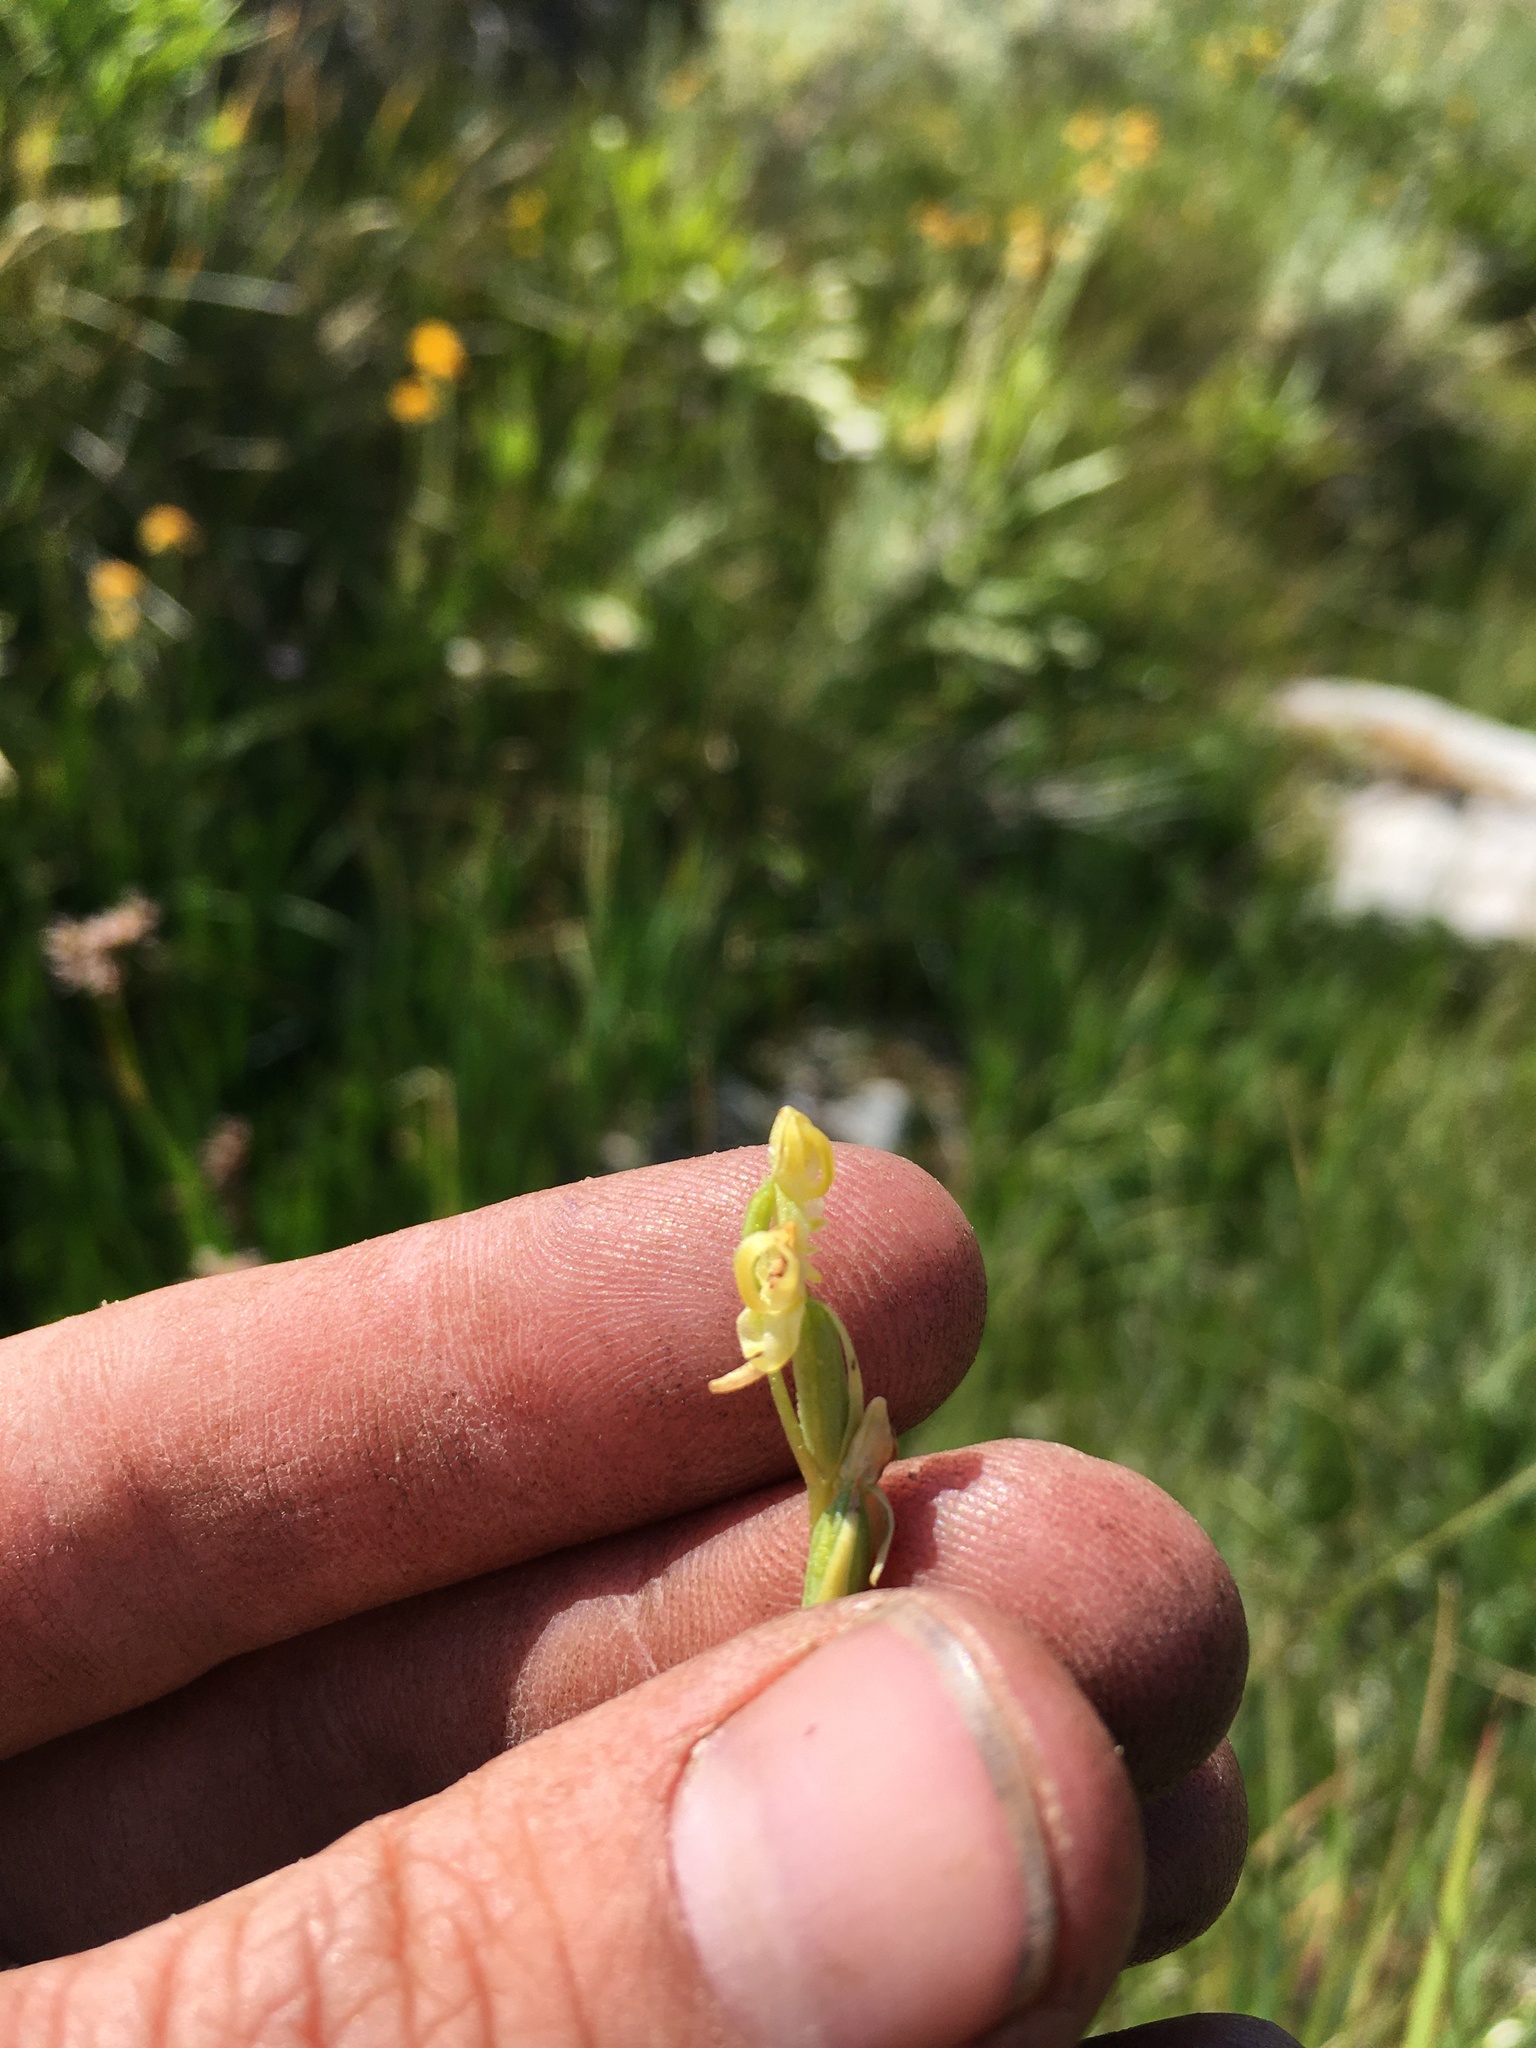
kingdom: Plantae
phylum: Tracheophyta
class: Liliopsida
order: Asparagales
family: Orchidaceae
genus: Platanthera
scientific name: Platanthera tescamnis
